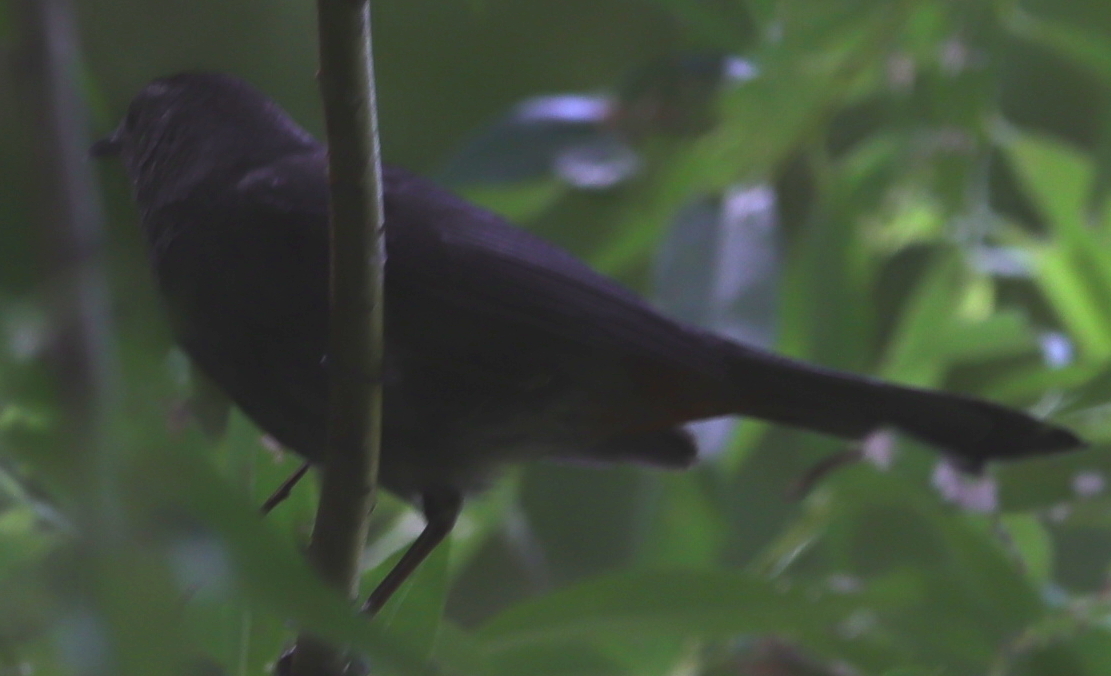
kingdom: Animalia
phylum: Chordata
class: Aves
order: Passeriformes
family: Mimidae
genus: Dumetella
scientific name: Dumetella carolinensis
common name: Gray catbird
